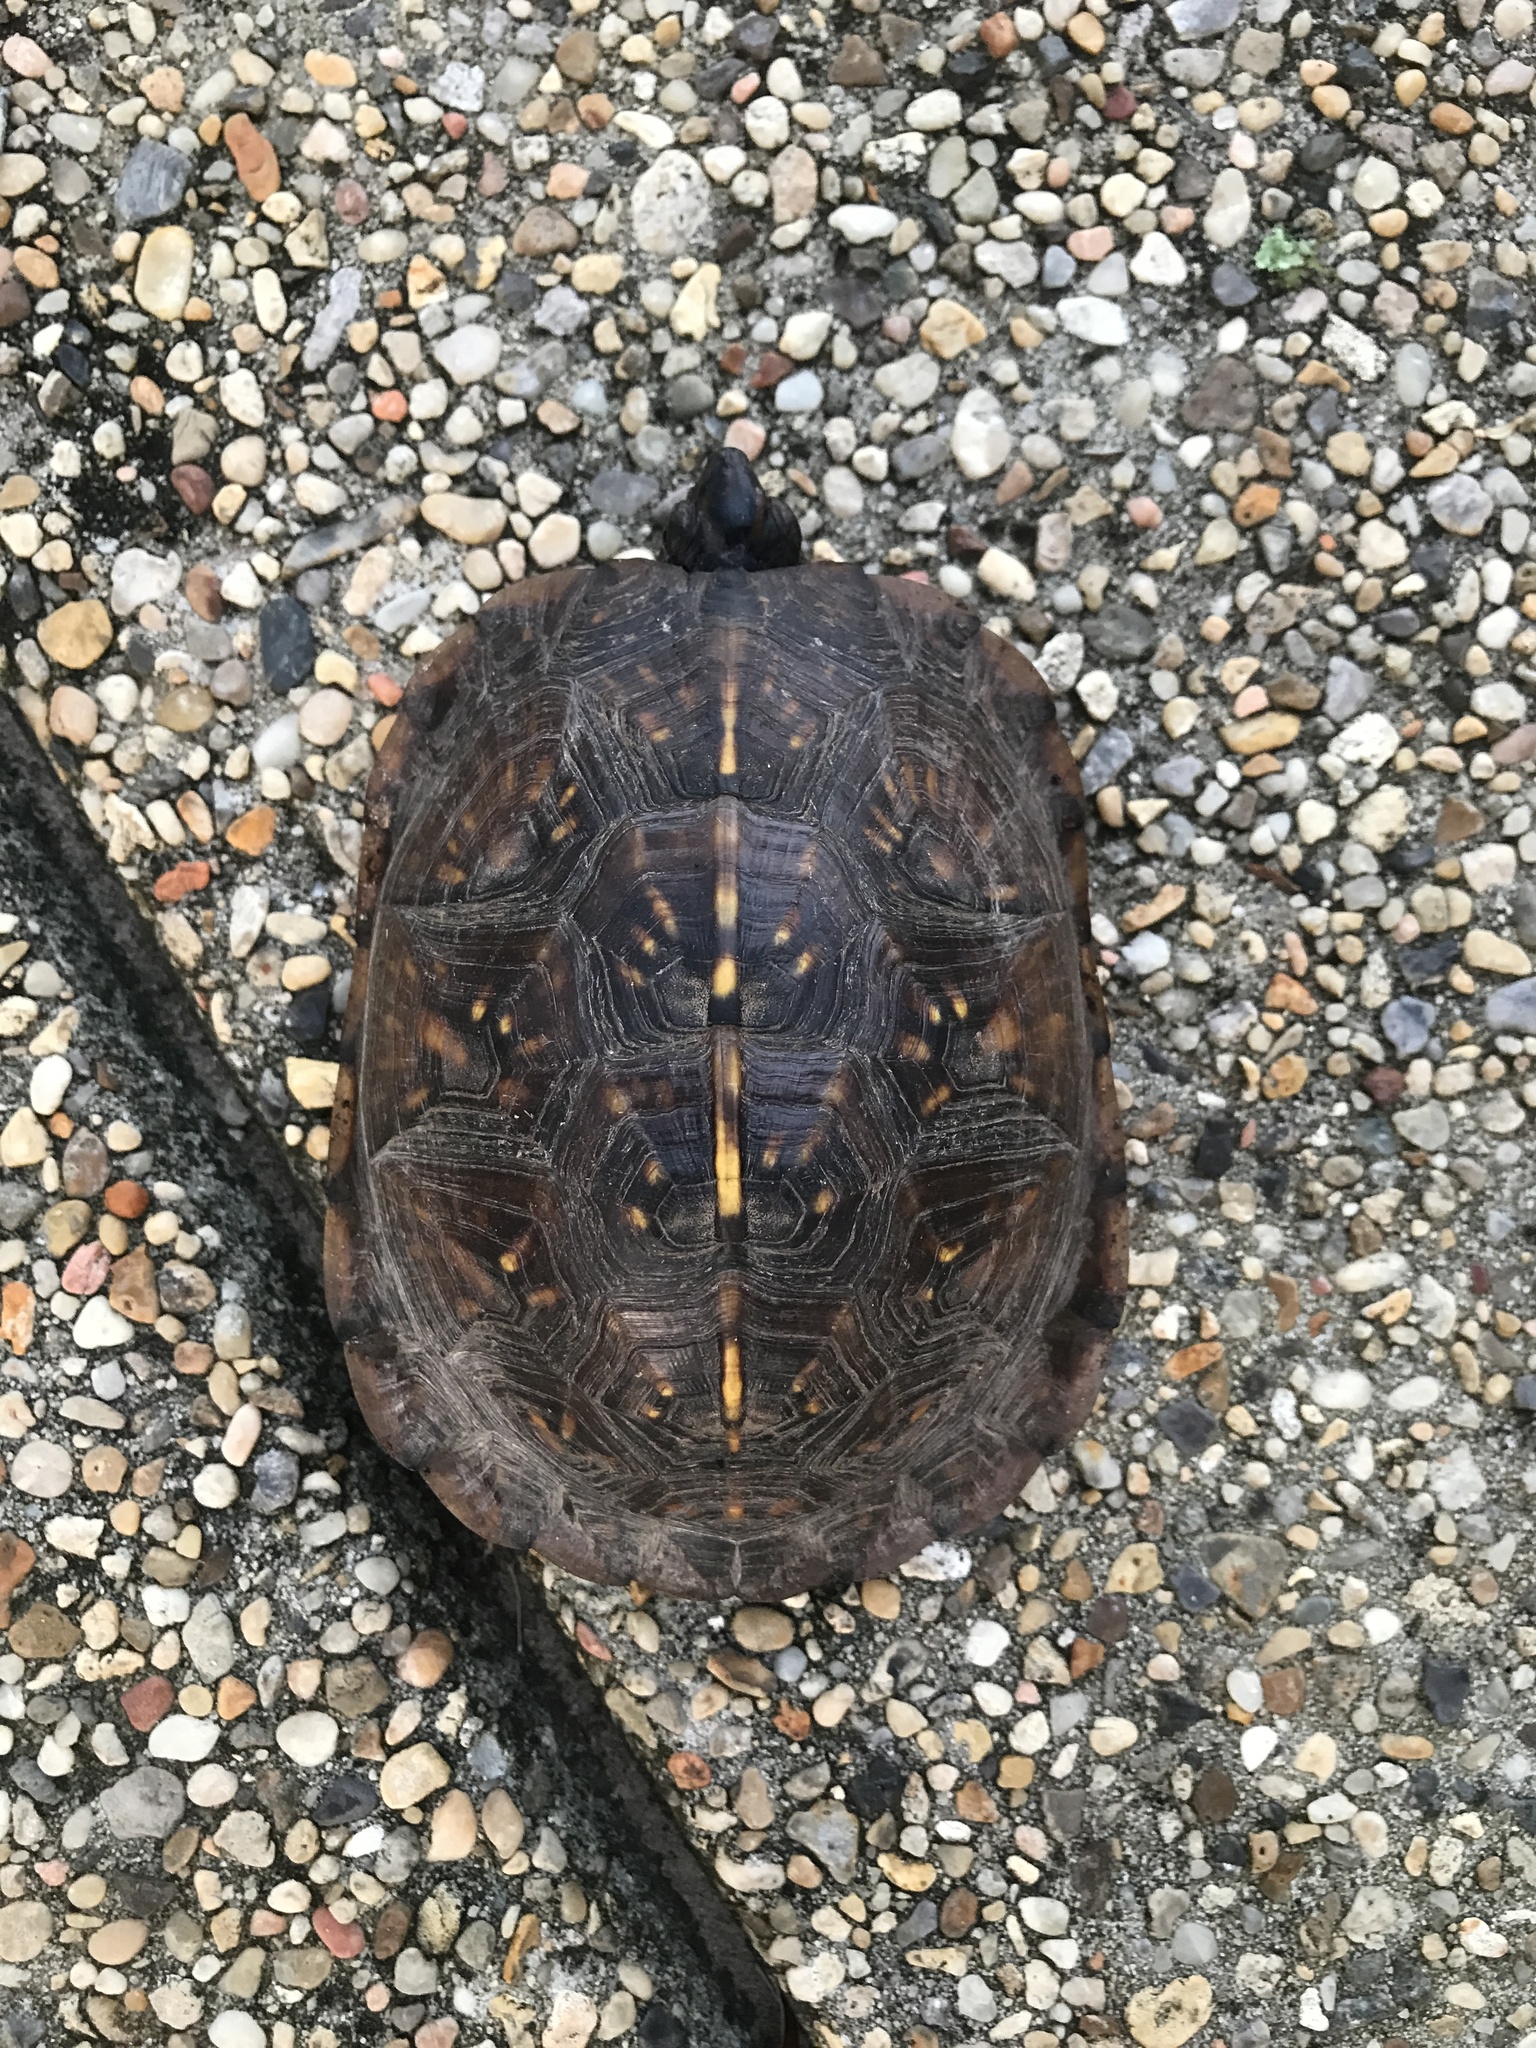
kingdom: Animalia
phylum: Chordata
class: Testudines
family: Emydidae
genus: Terrapene
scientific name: Terrapene carolina
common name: Common box turtle
